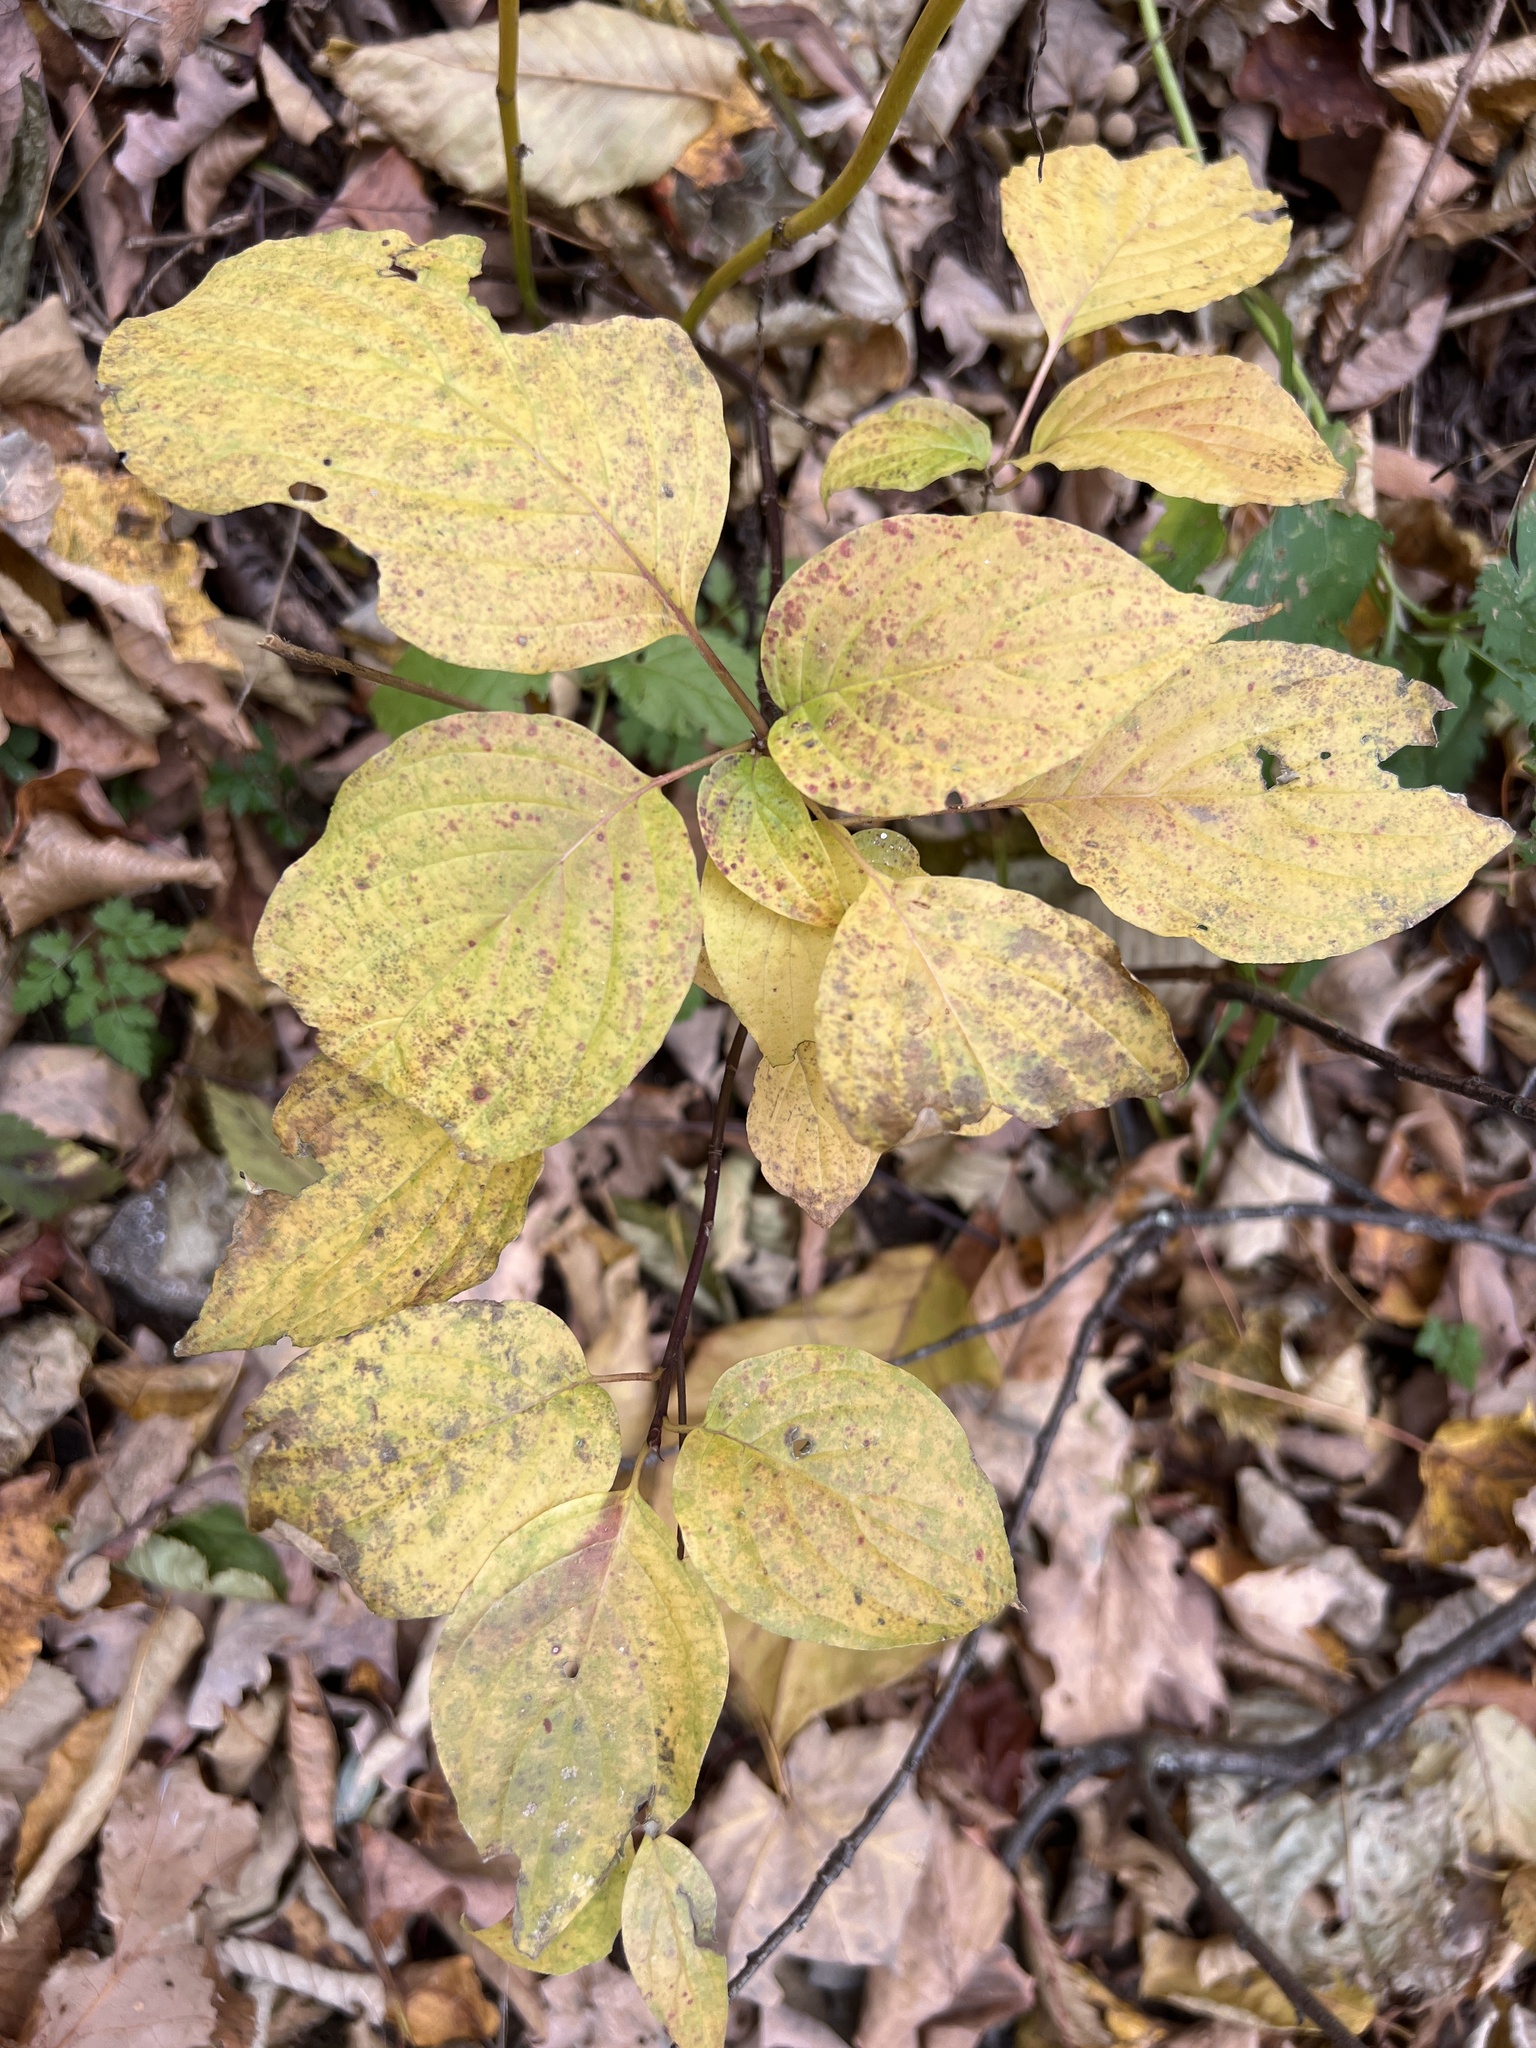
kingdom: Plantae
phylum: Tracheophyta
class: Magnoliopsida
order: Cornales
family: Cornaceae
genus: Cornus
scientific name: Cornus alternifolia
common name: Pagoda dogwood
